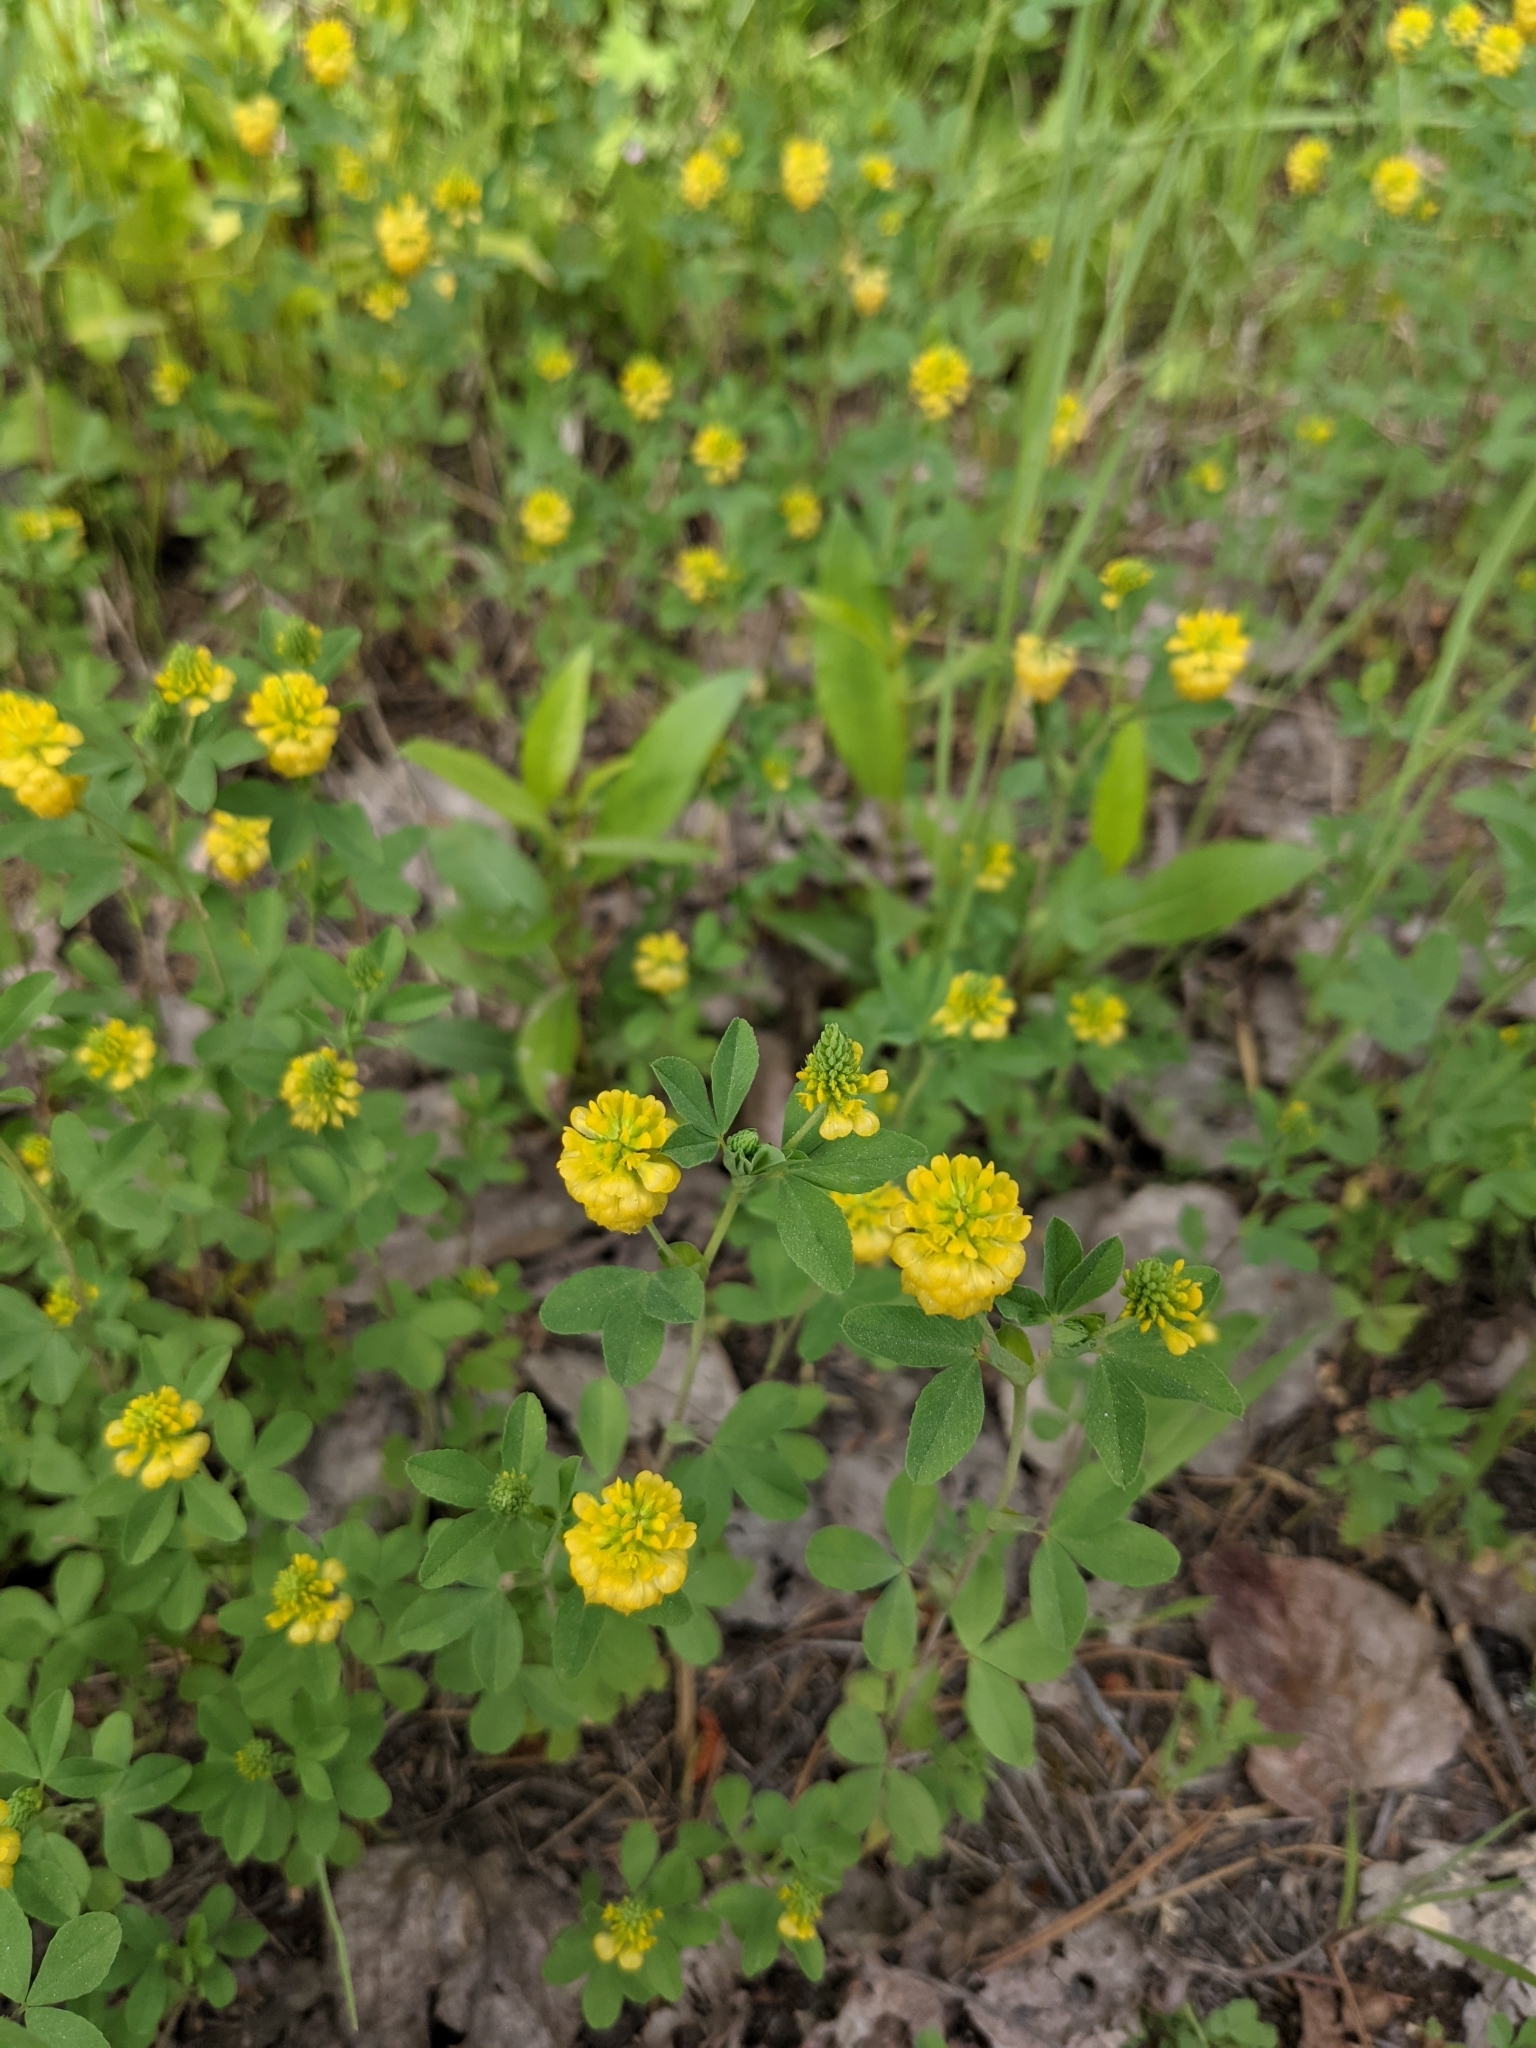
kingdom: Plantae
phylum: Tracheophyta
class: Magnoliopsida
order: Fabales
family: Fabaceae
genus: Trifolium
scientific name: Trifolium aureum
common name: Golden clover
